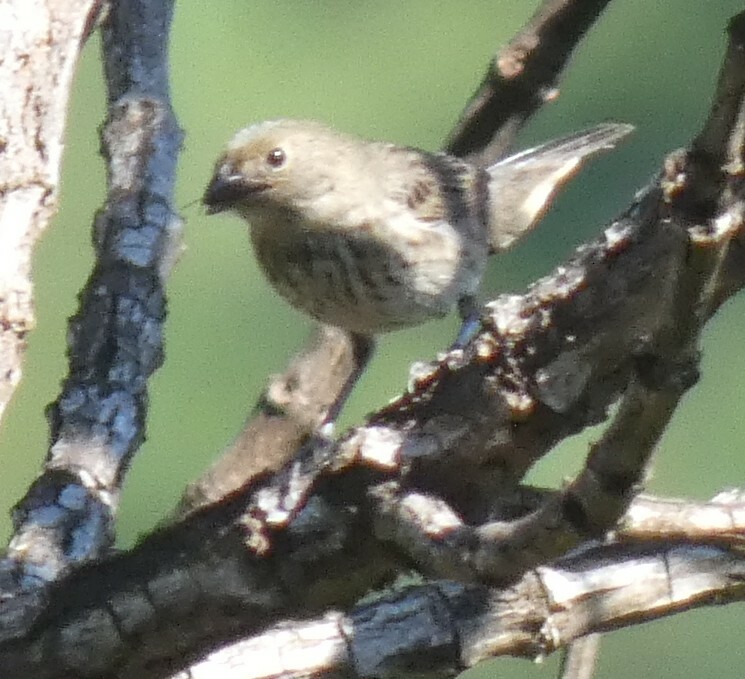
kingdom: Animalia
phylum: Chordata
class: Aves
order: Passeriformes
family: Thraupidae
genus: Volatinia
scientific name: Volatinia jacarina
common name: Blue-black grassquit
